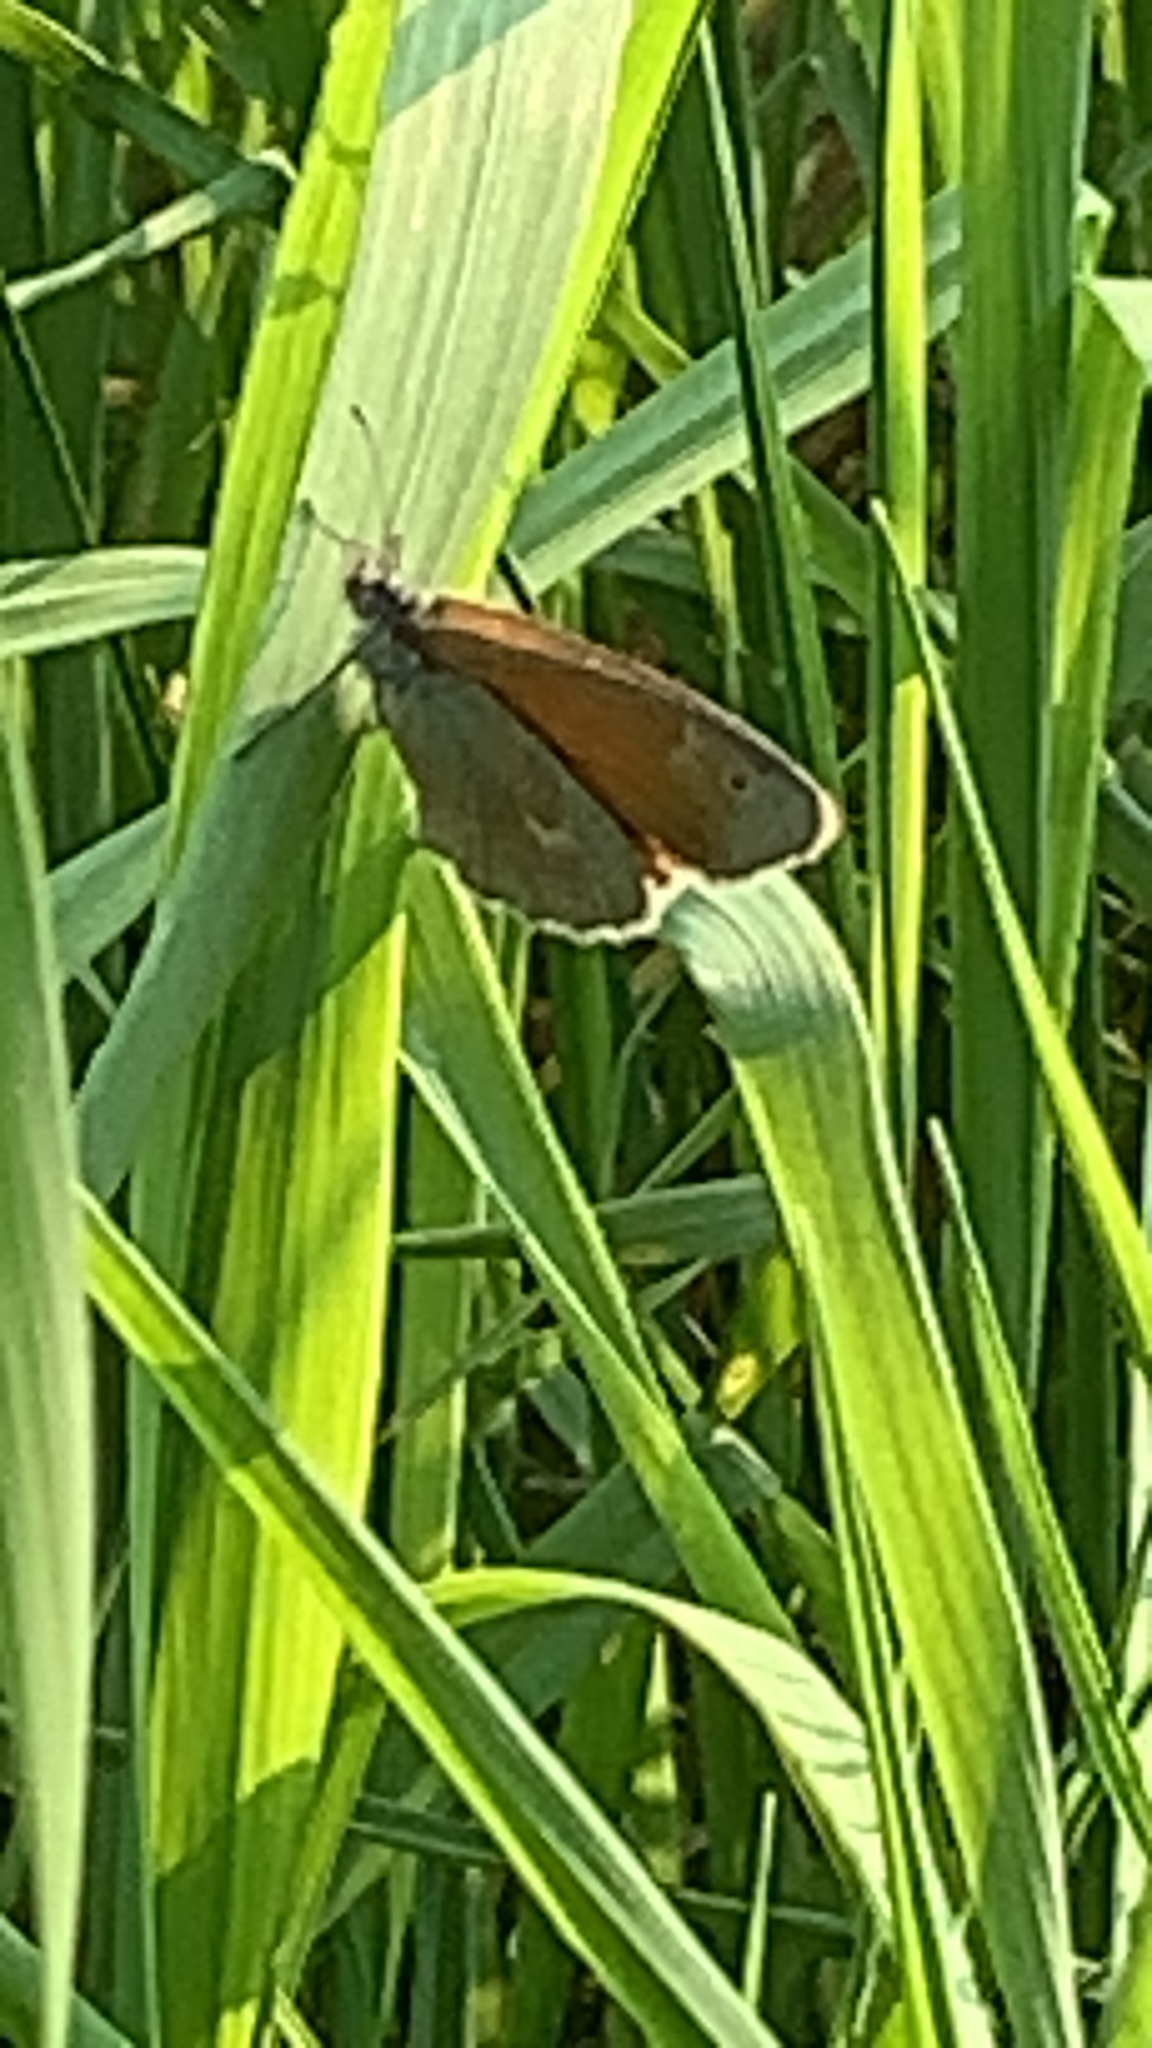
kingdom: Animalia
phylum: Arthropoda
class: Insecta
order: Lepidoptera
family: Nymphalidae
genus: Coenonympha
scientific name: Coenonympha california
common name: Common ringlet
